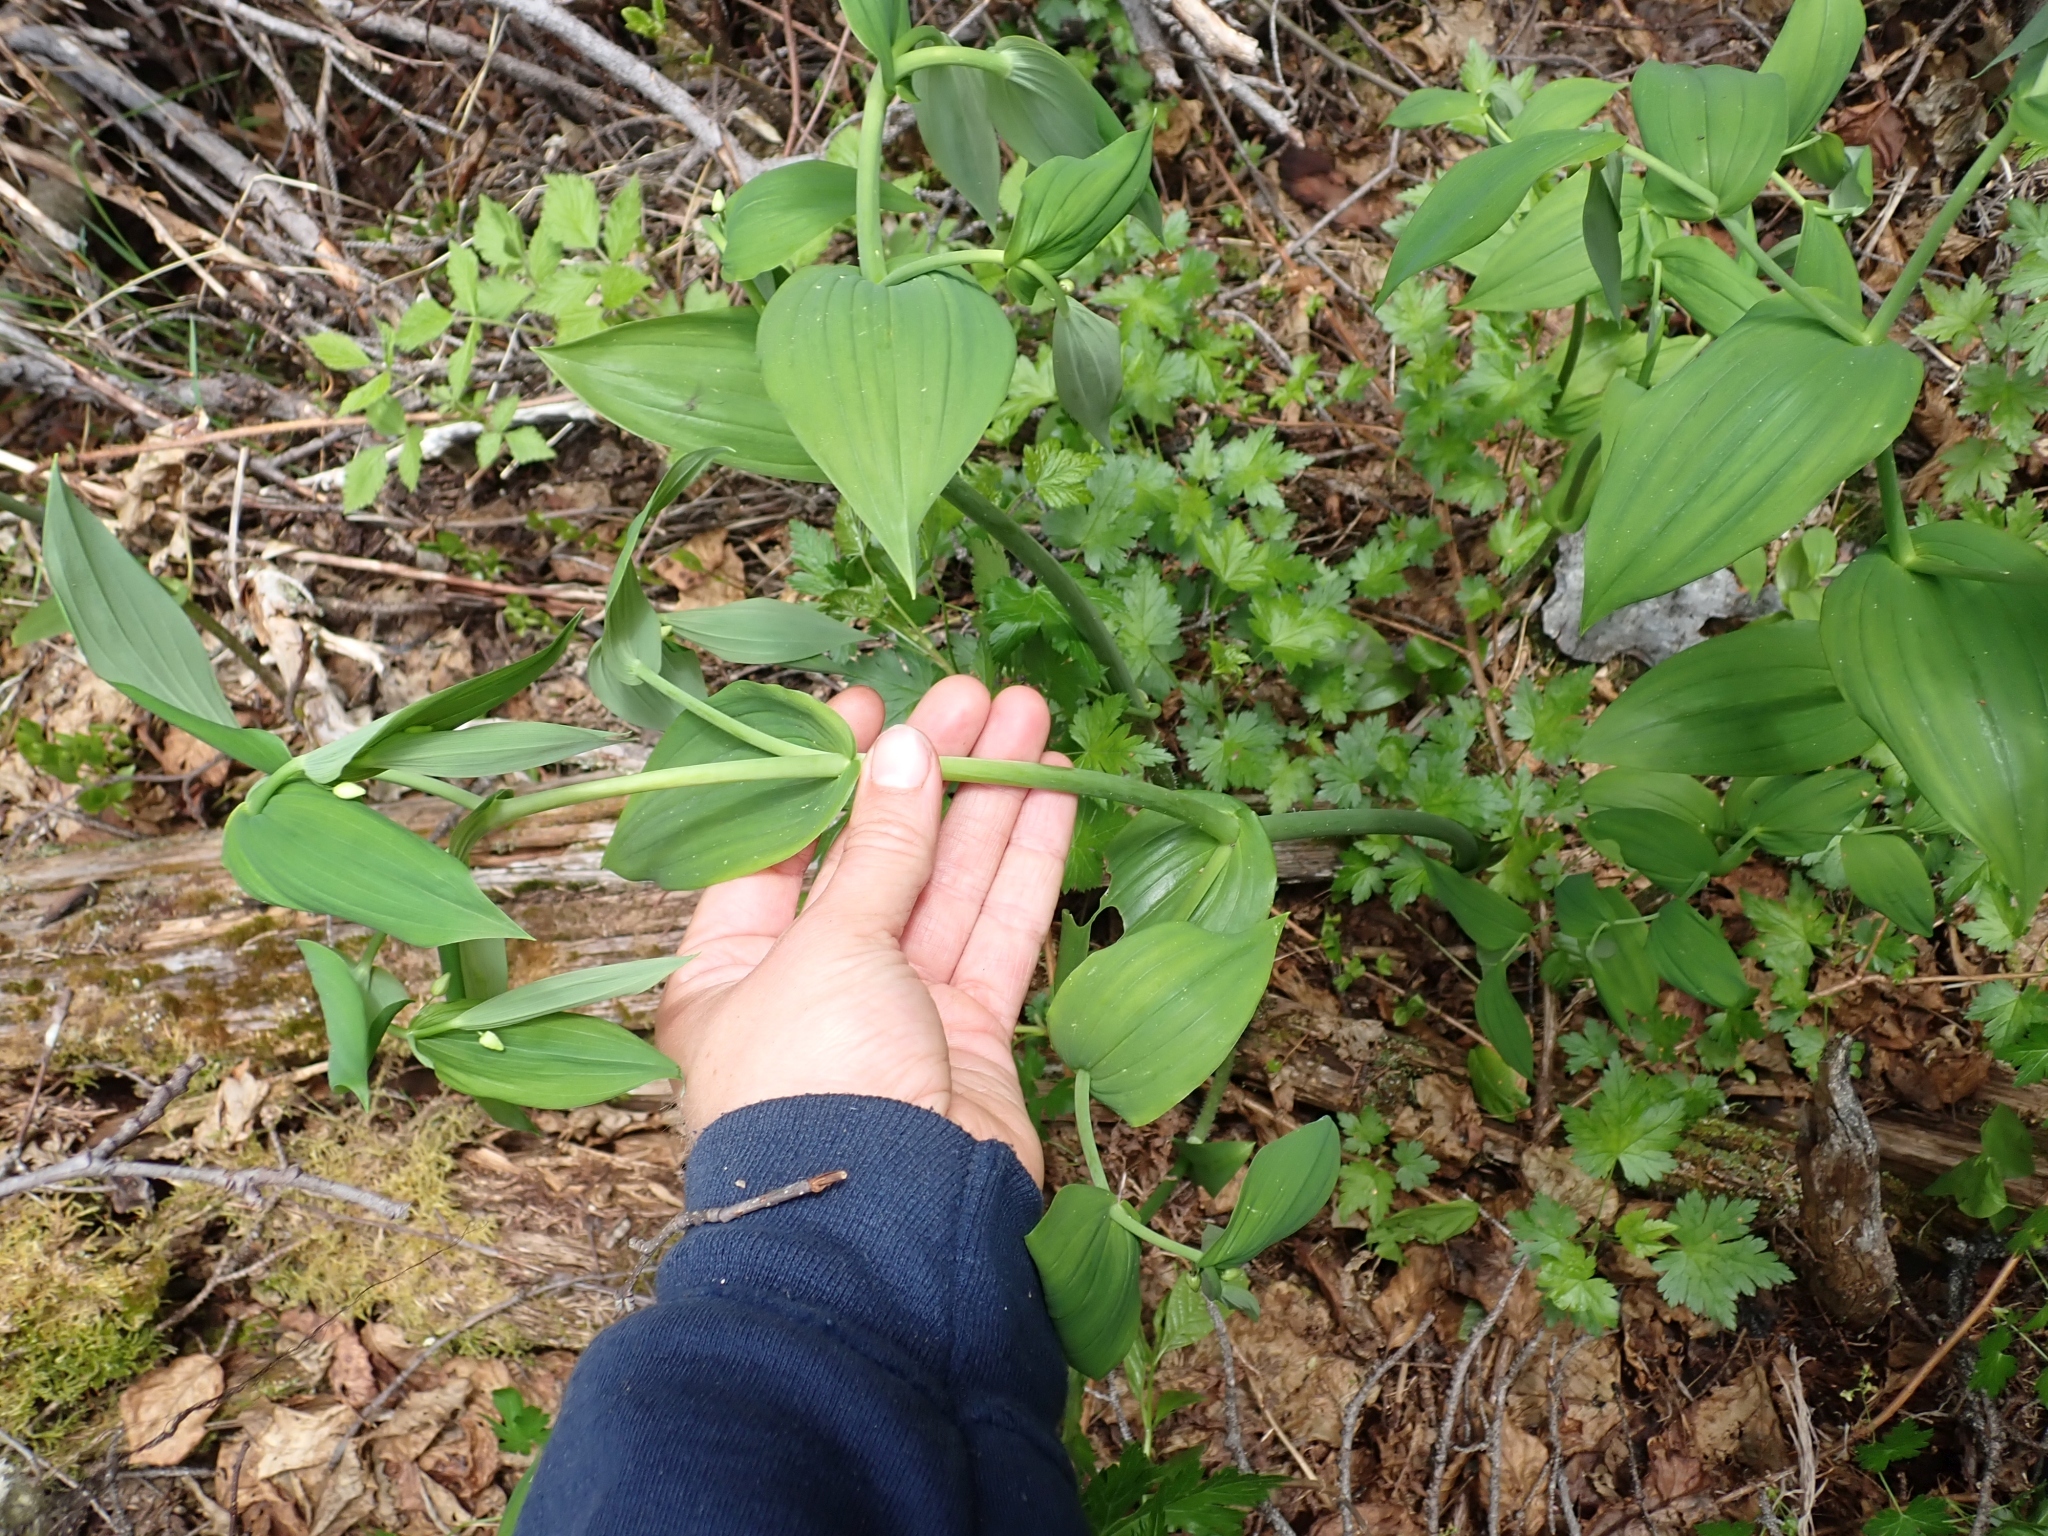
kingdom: Plantae
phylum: Tracheophyta
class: Liliopsida
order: Liliales
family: Liliaceae
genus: Streptopus
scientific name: Streptopus amplexifolius
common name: Clasp twisted stalk
